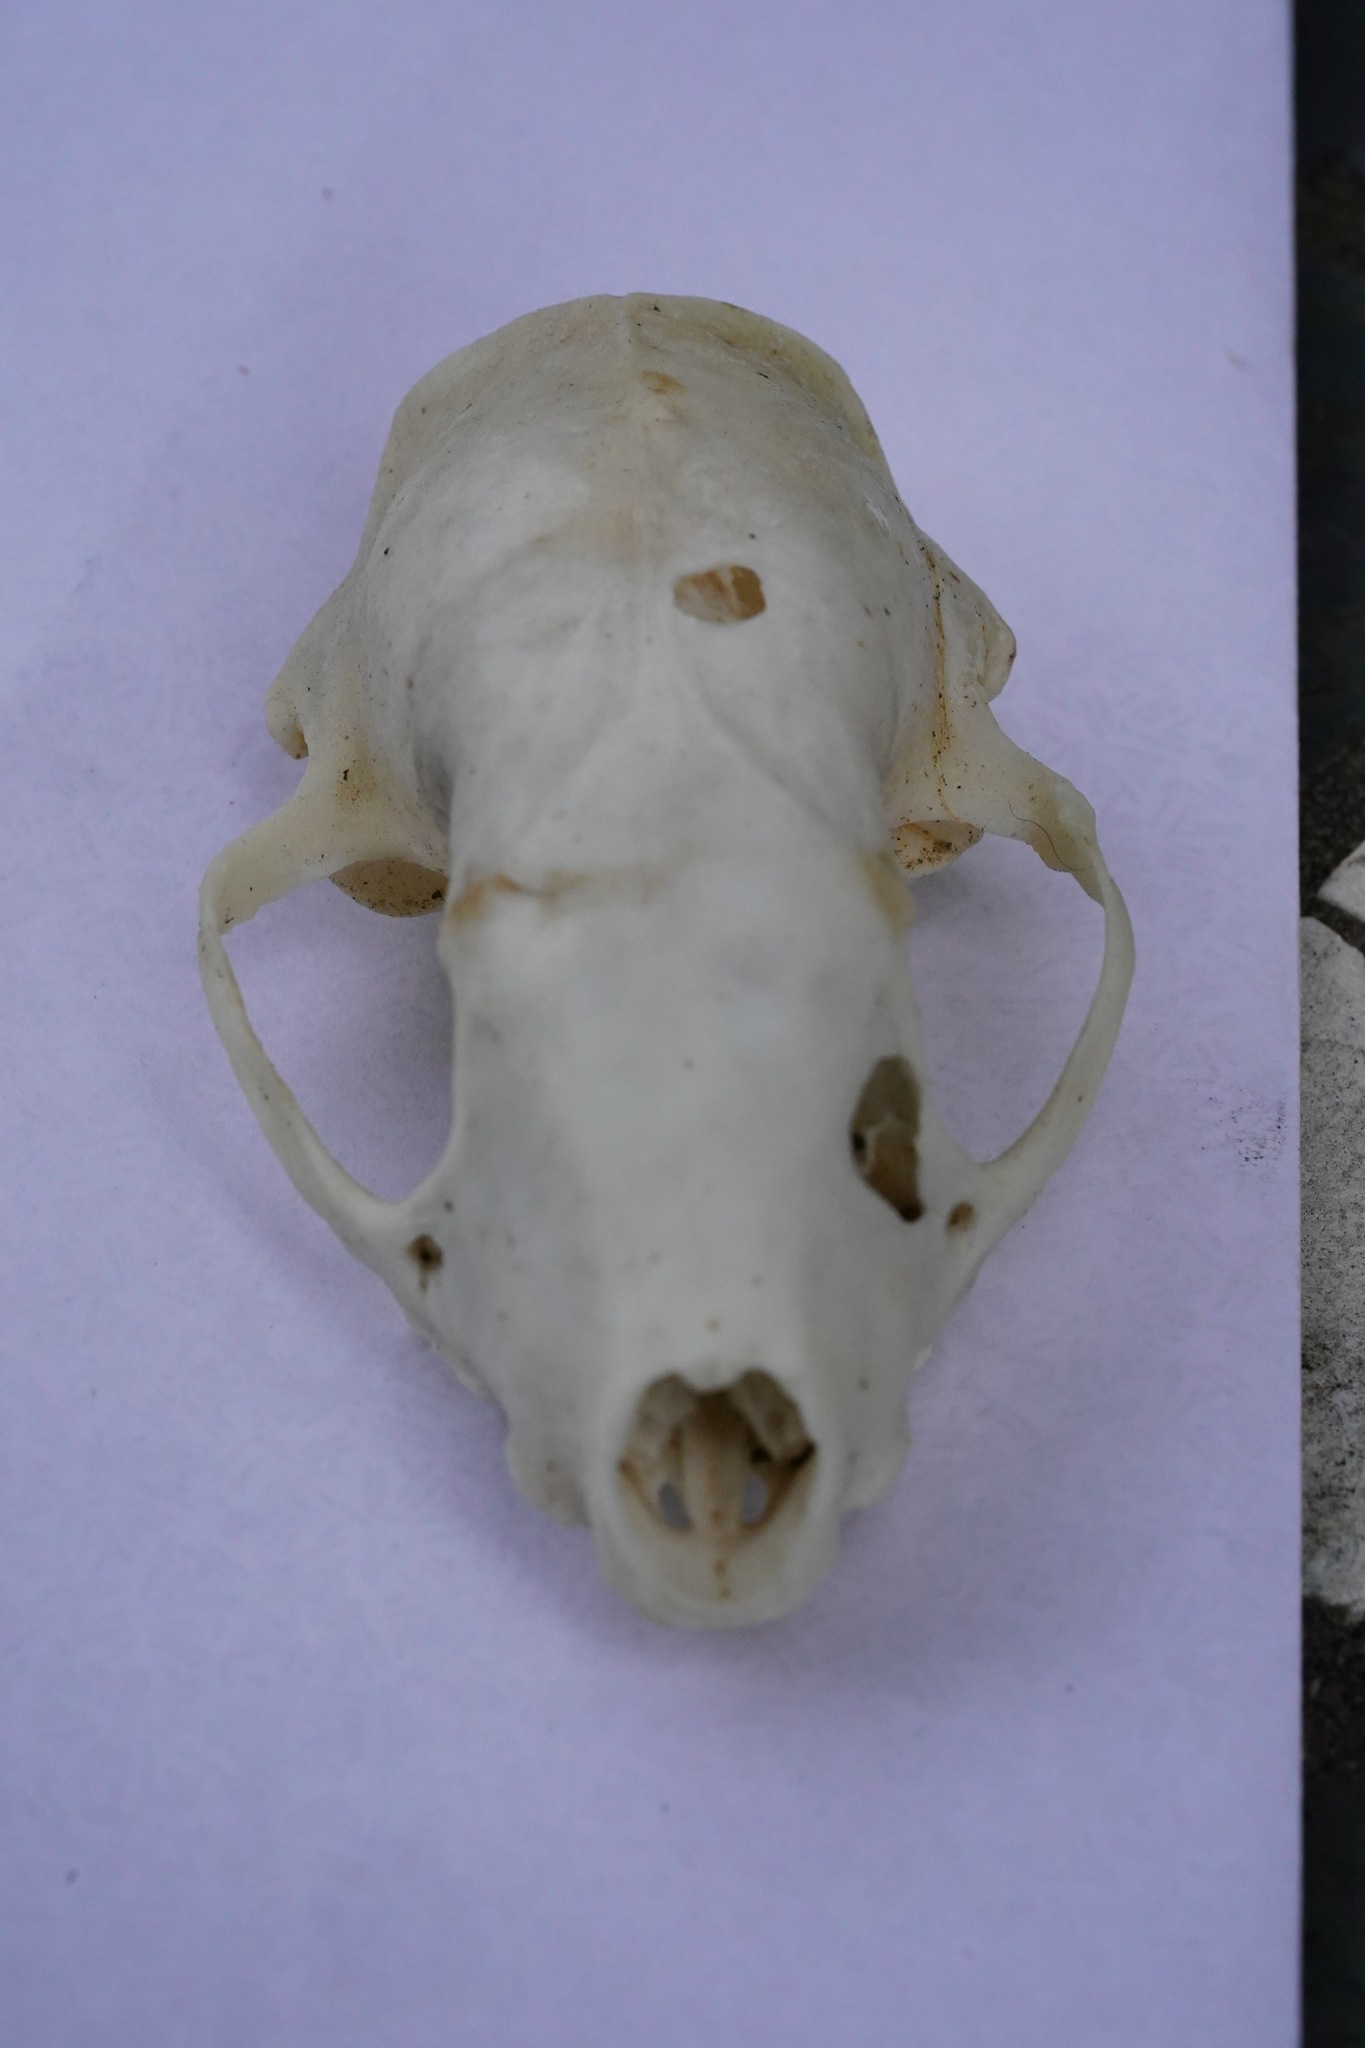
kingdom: Animalia
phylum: Chordata
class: Mammalia
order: Carnivora
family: Mephitidae
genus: Mephitis
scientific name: Mephitis mephitis
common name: Striped skunk
